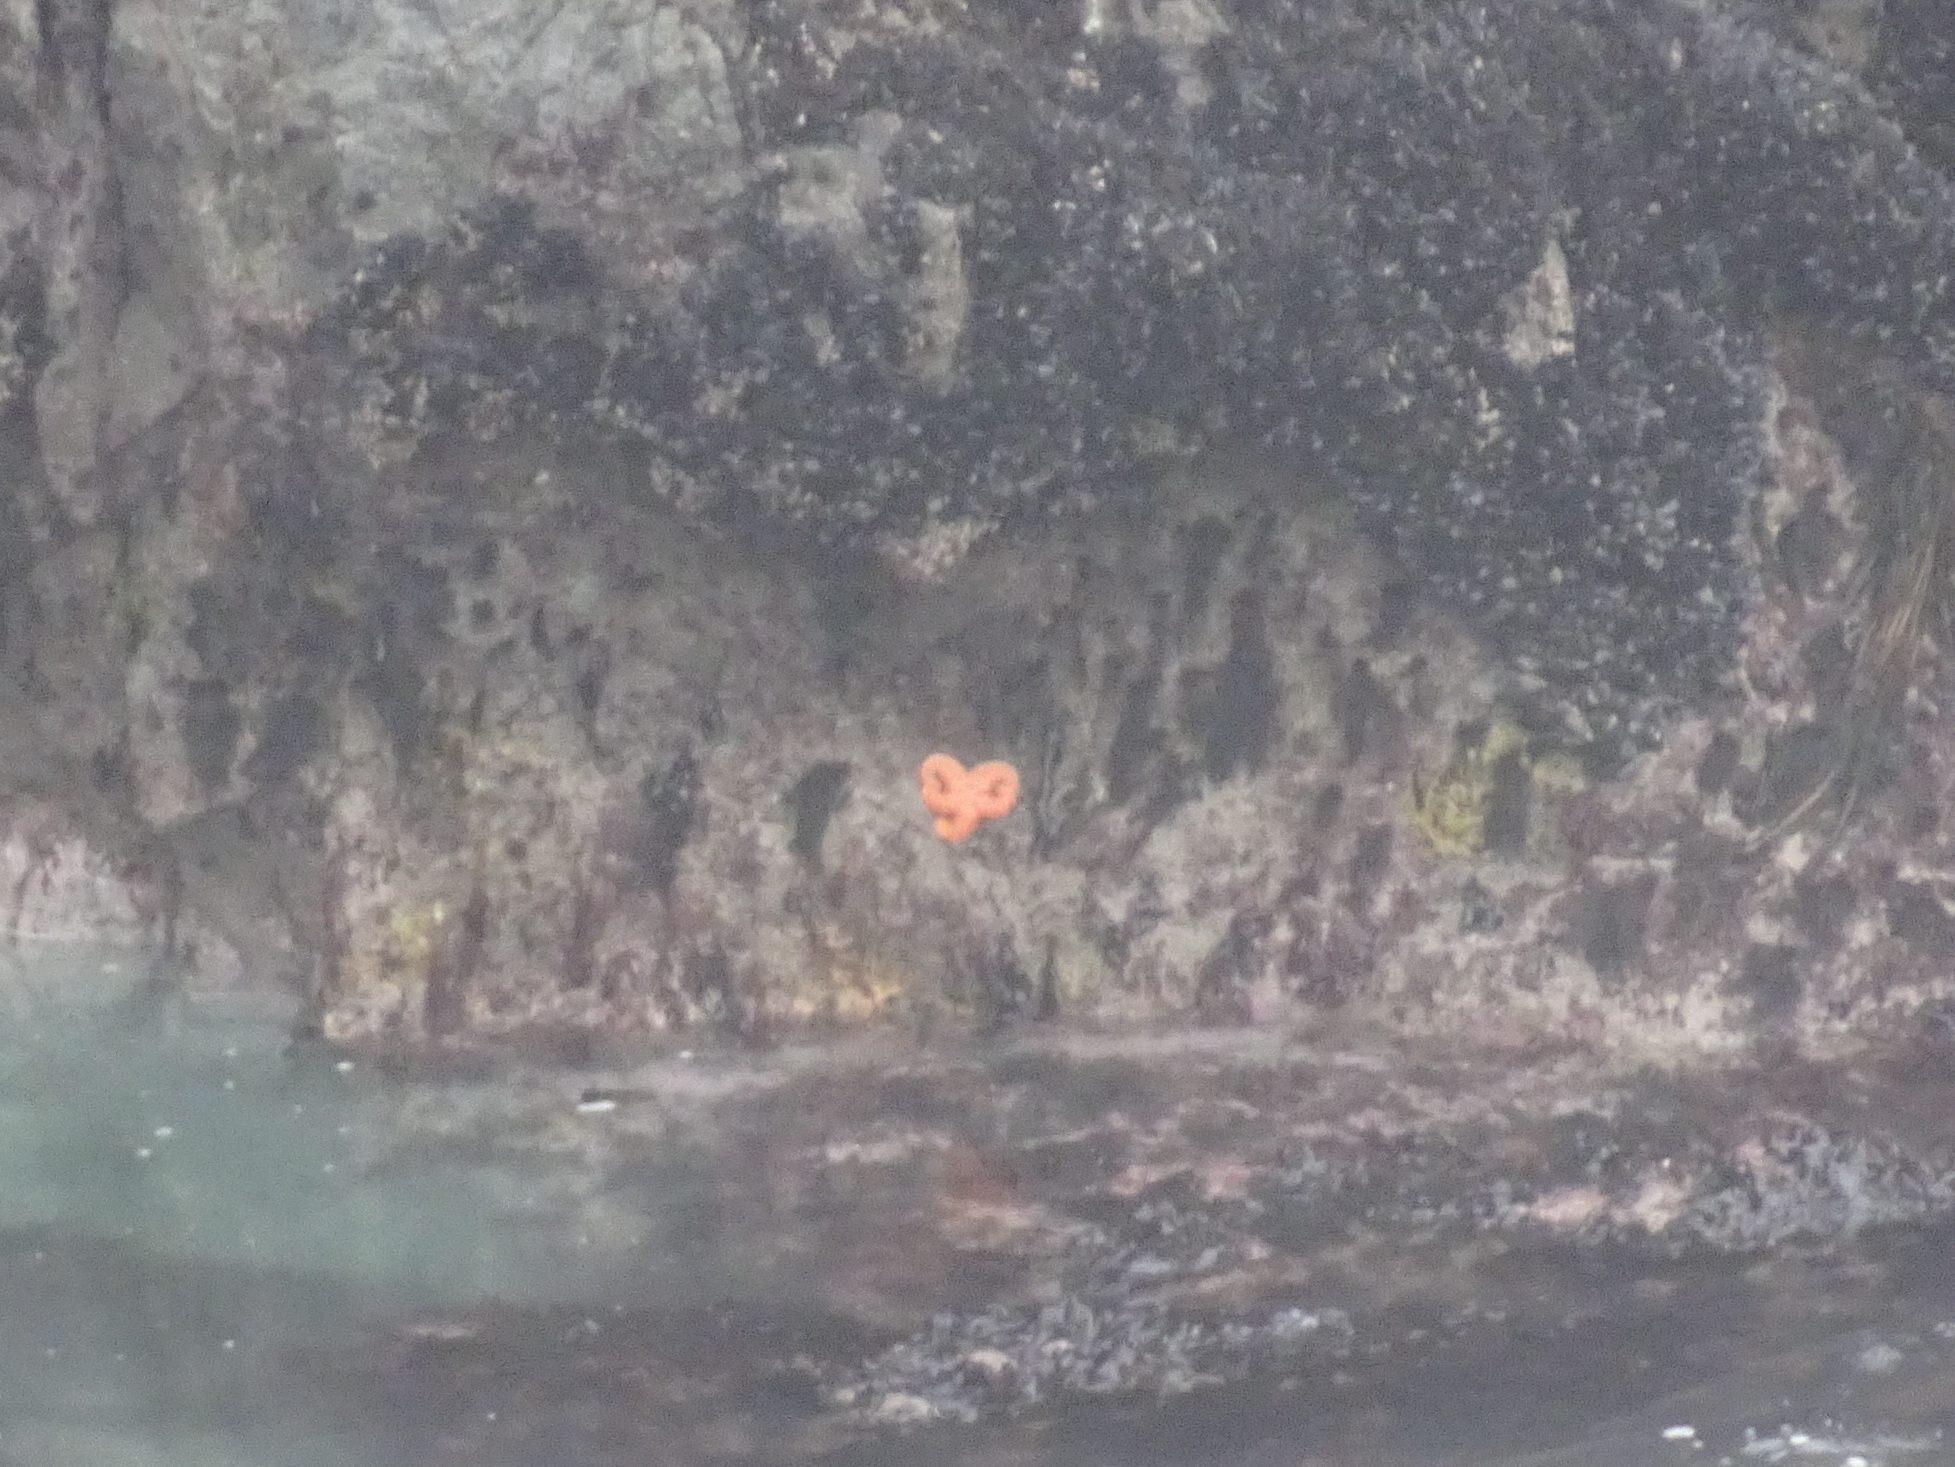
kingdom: Animalia
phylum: Echinodermata
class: Asteroidea
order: Forcipulatida
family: Asteriidae
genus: Pisaster
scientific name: Pisaster ochraceus
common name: Ochre stars
